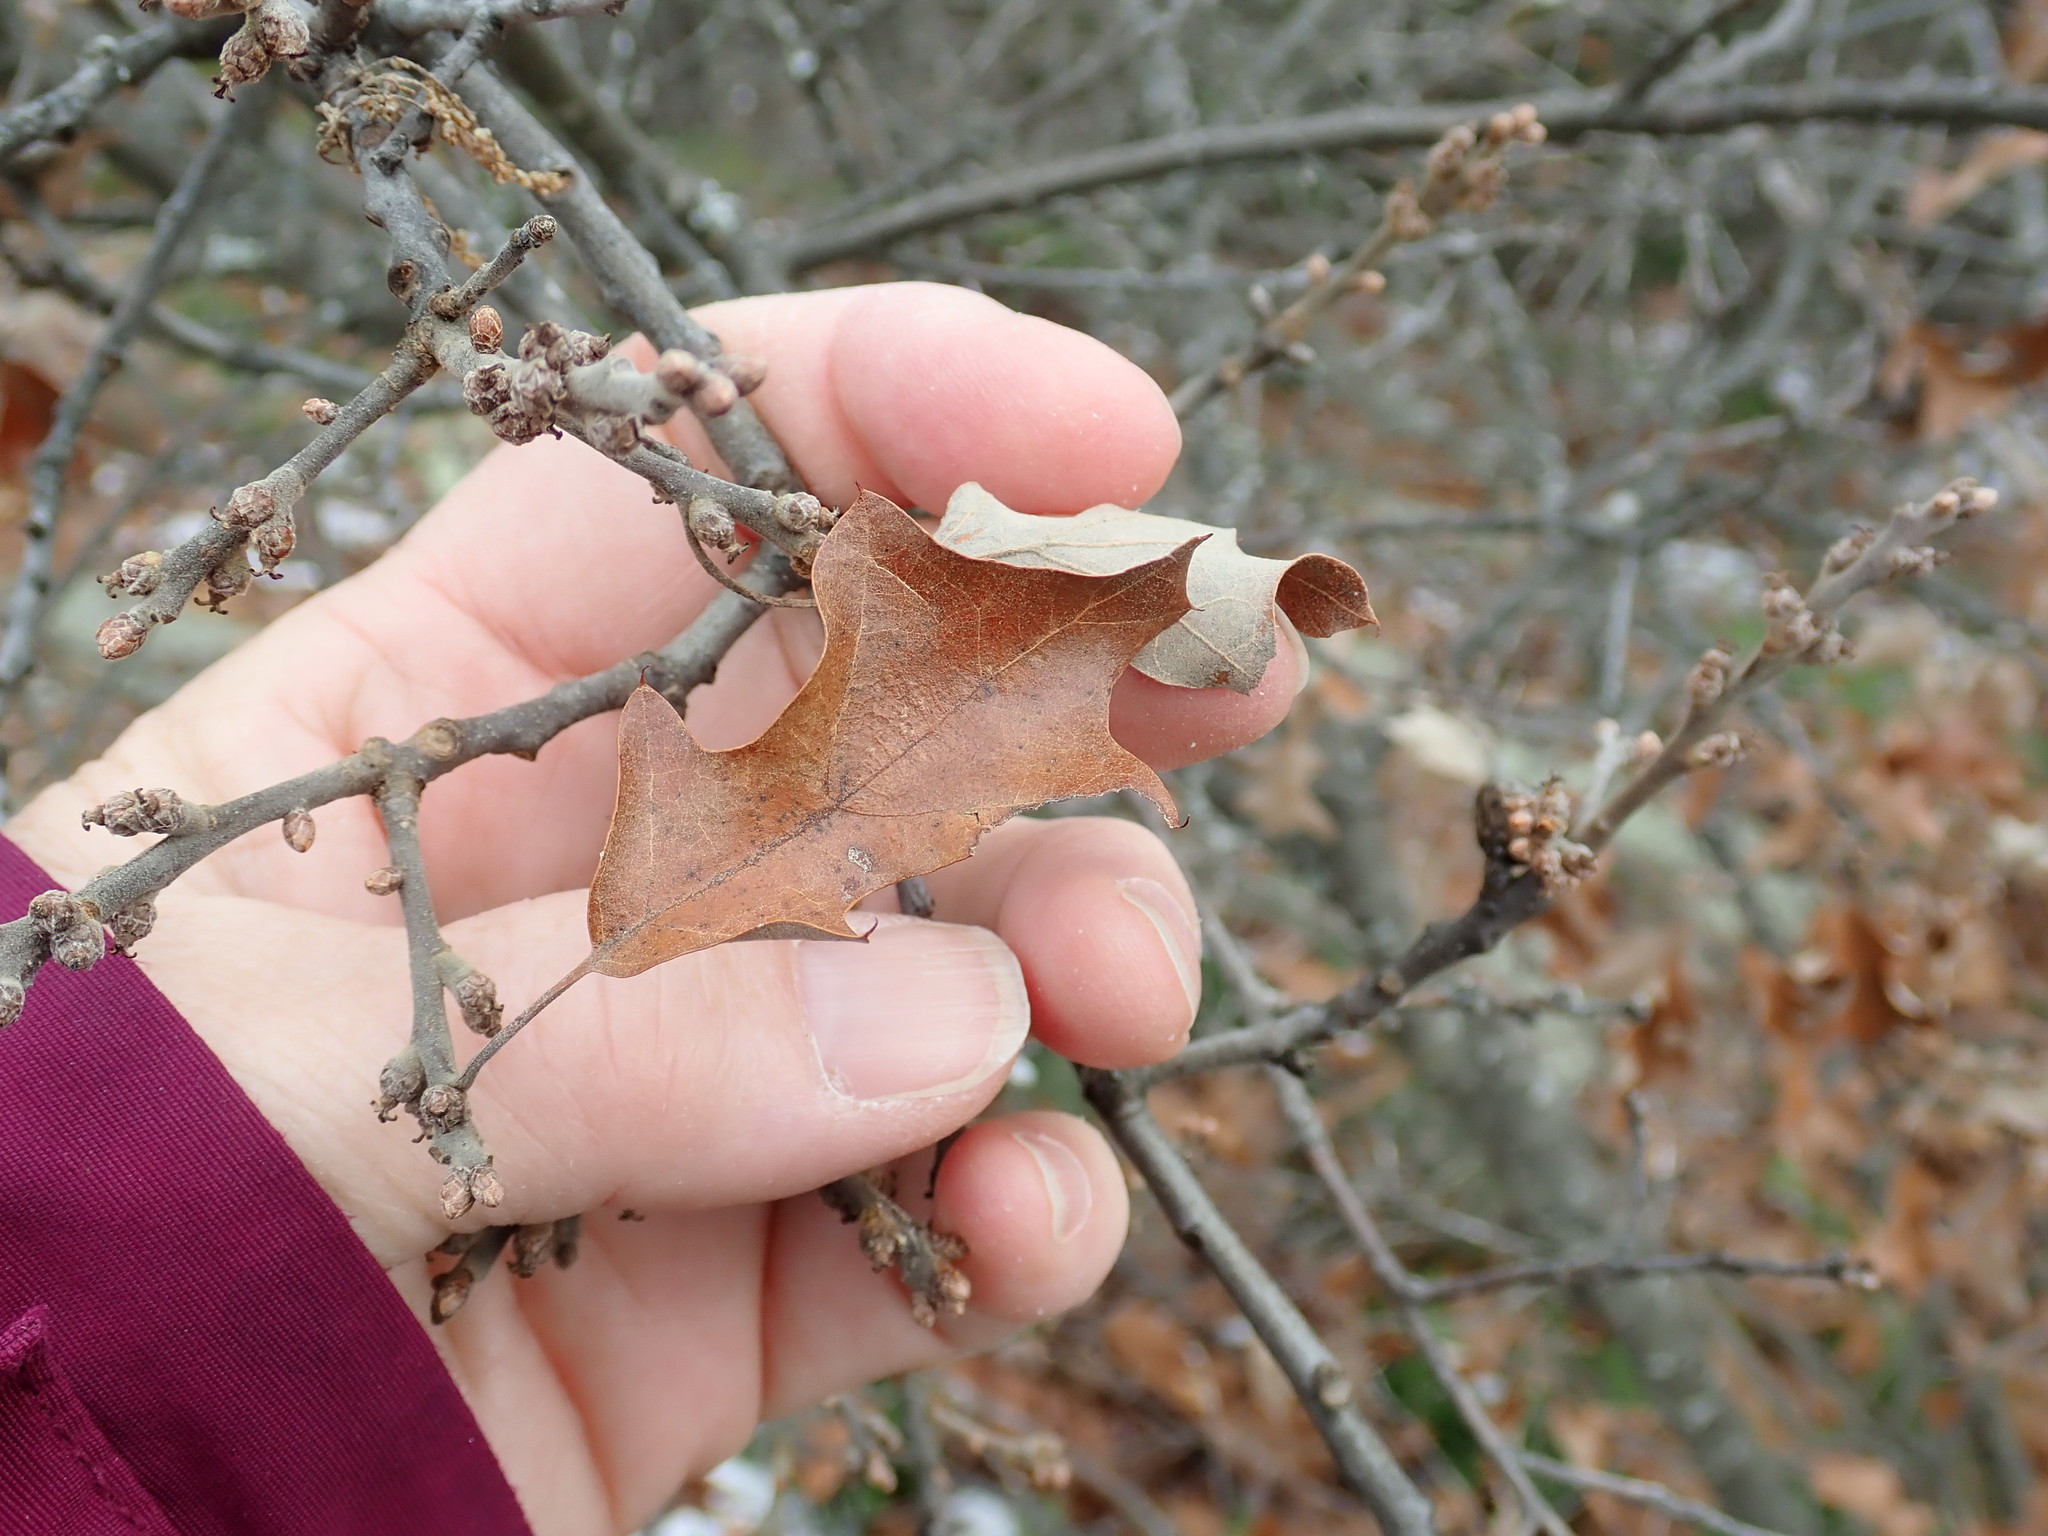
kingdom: Plantae
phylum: Tracheophyta
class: Magnoliopsida
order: Fagales
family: Fagaceae
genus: Quercus
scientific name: Quercus ilicifolia
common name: Bear oak
